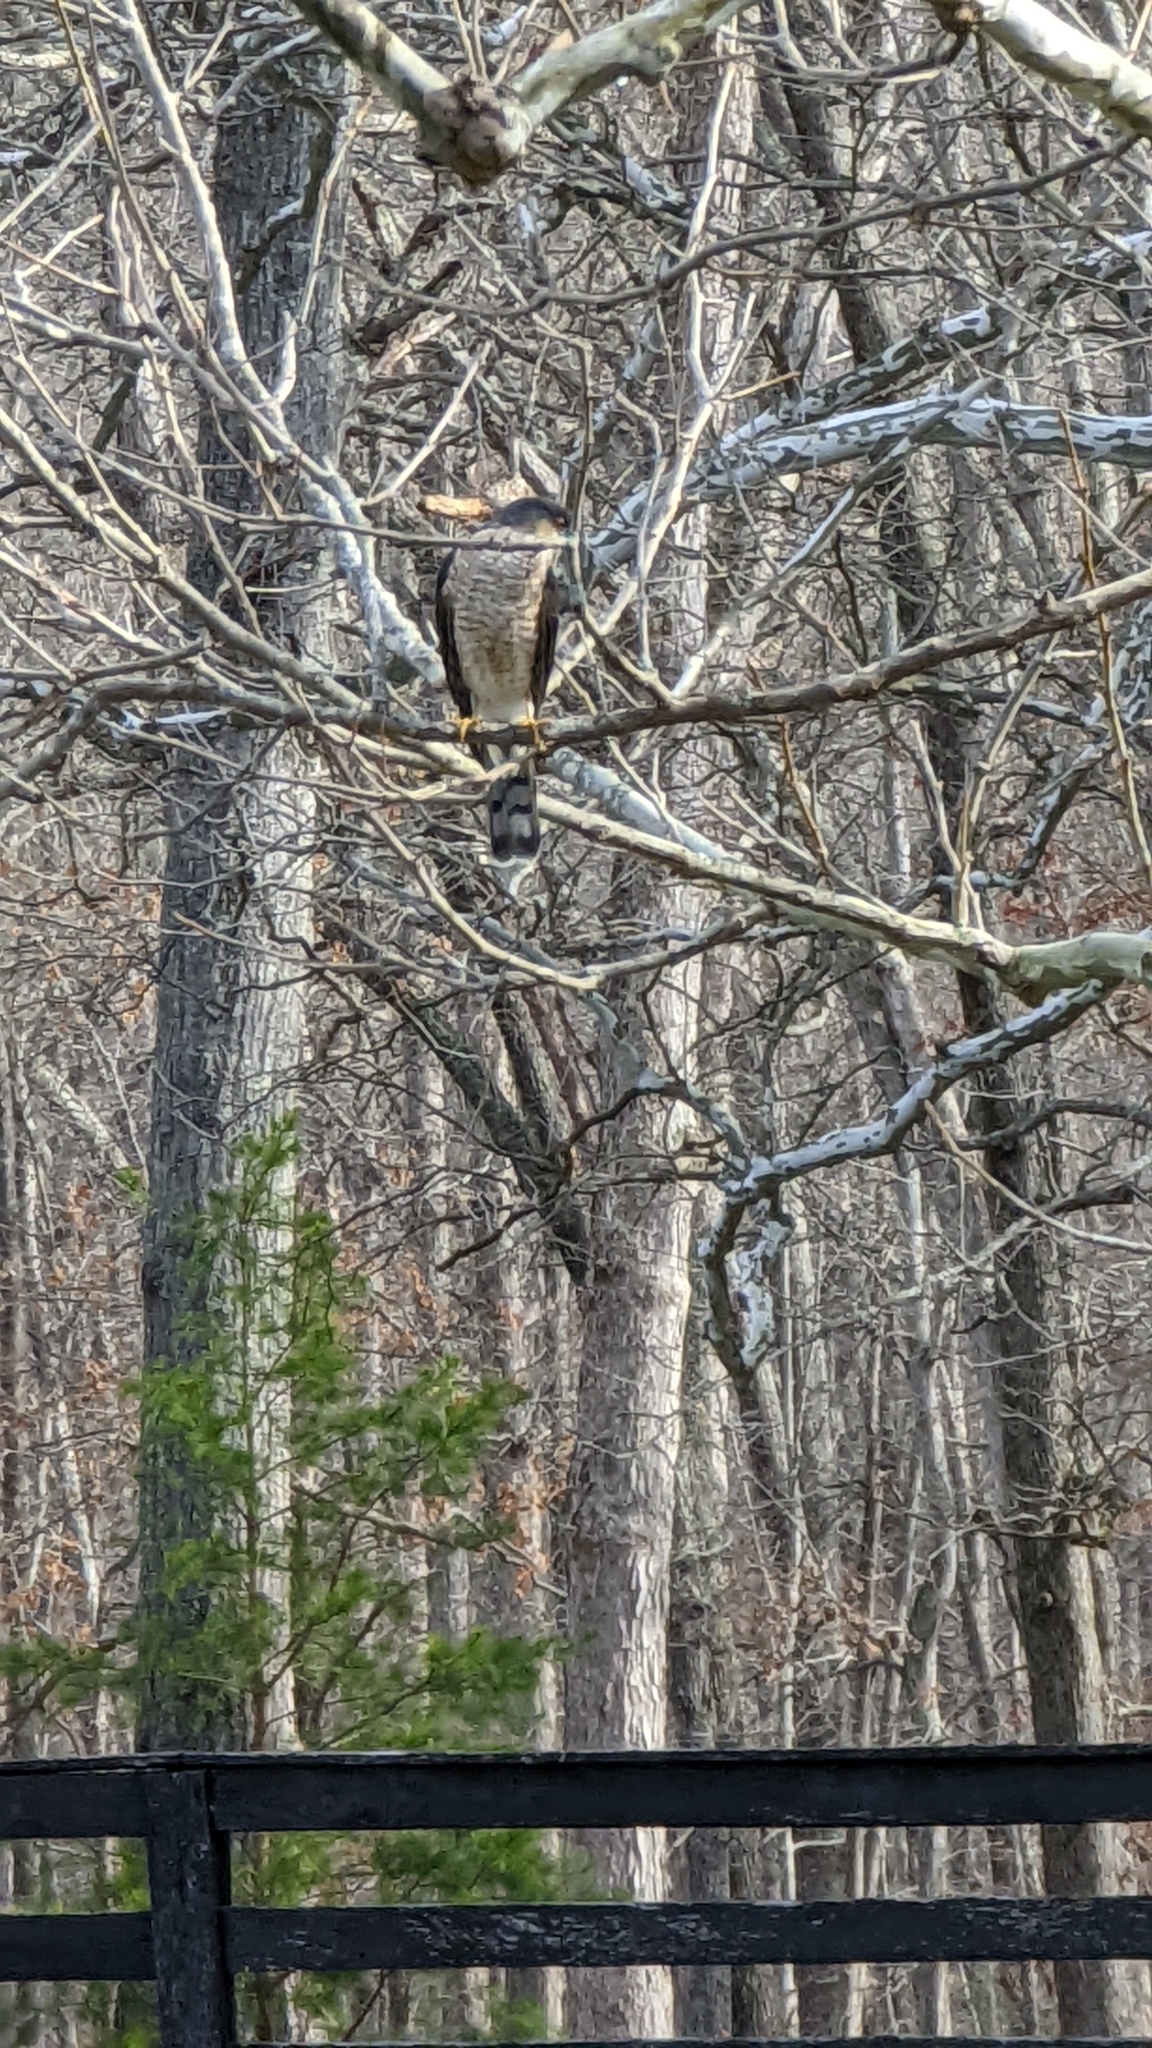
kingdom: Animalia
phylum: Chordata
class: Aves
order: Accipitriformes
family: Accipitridae
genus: Accipiter
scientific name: Accipiter striatus
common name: Sharp-shinned hawk
